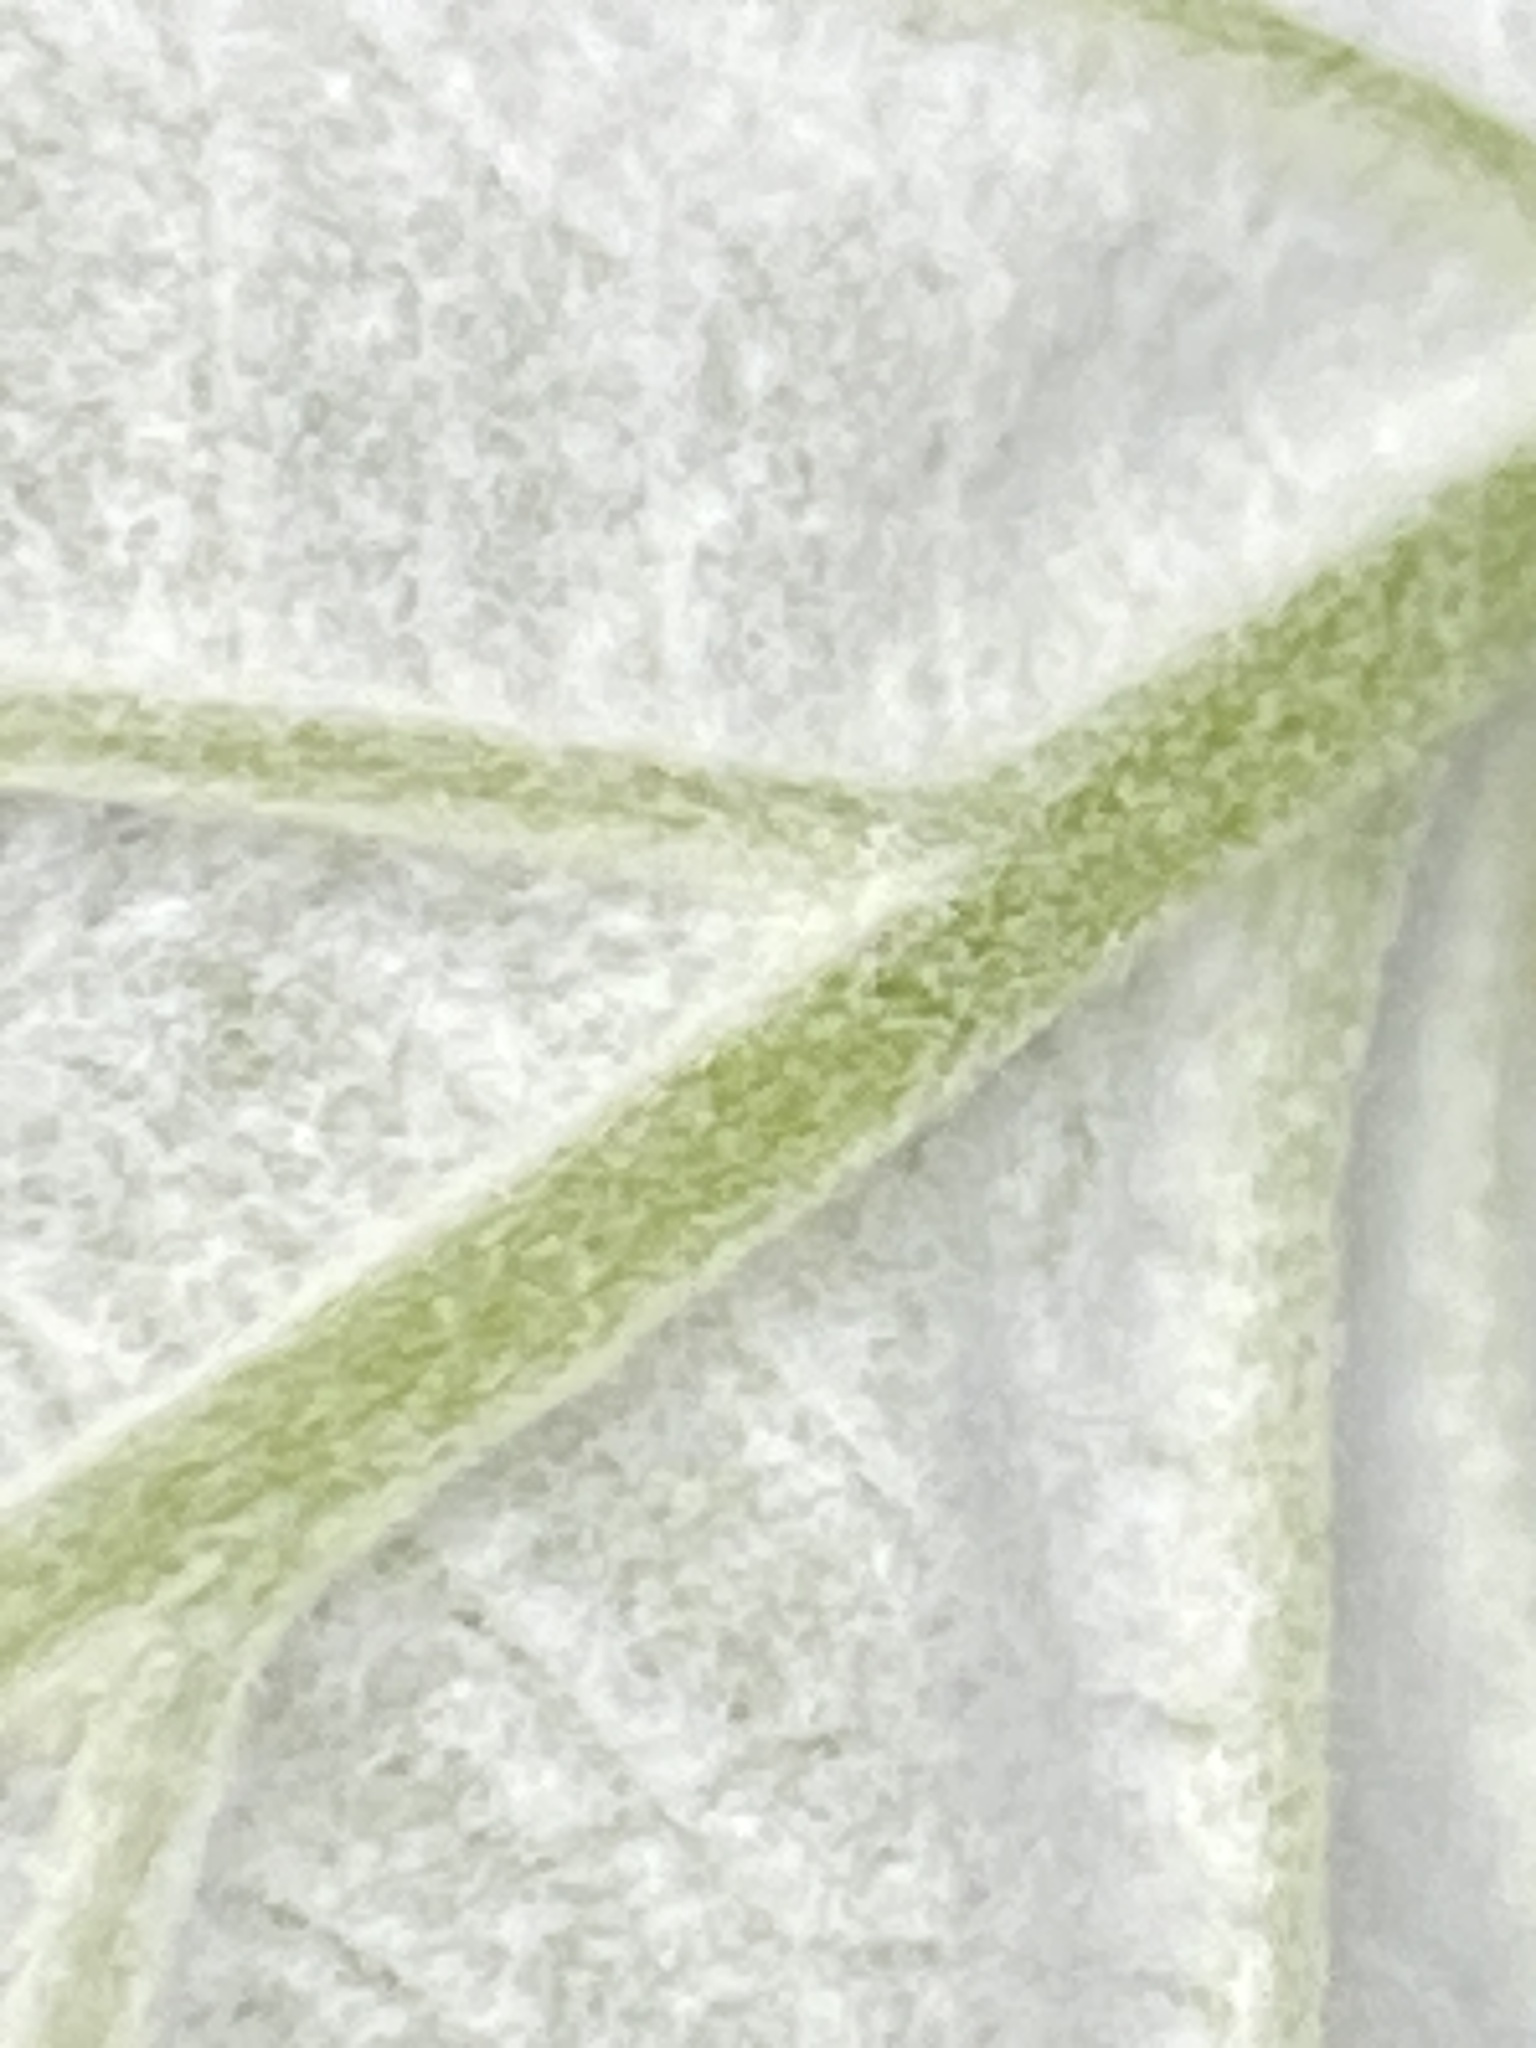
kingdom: Plantae
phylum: Tracheophyta
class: Magnoliopsida
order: Cornales
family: Hydrangeaceae
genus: Hydrangea
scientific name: Hydrangea radiata
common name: Silverleaf hydrangea
